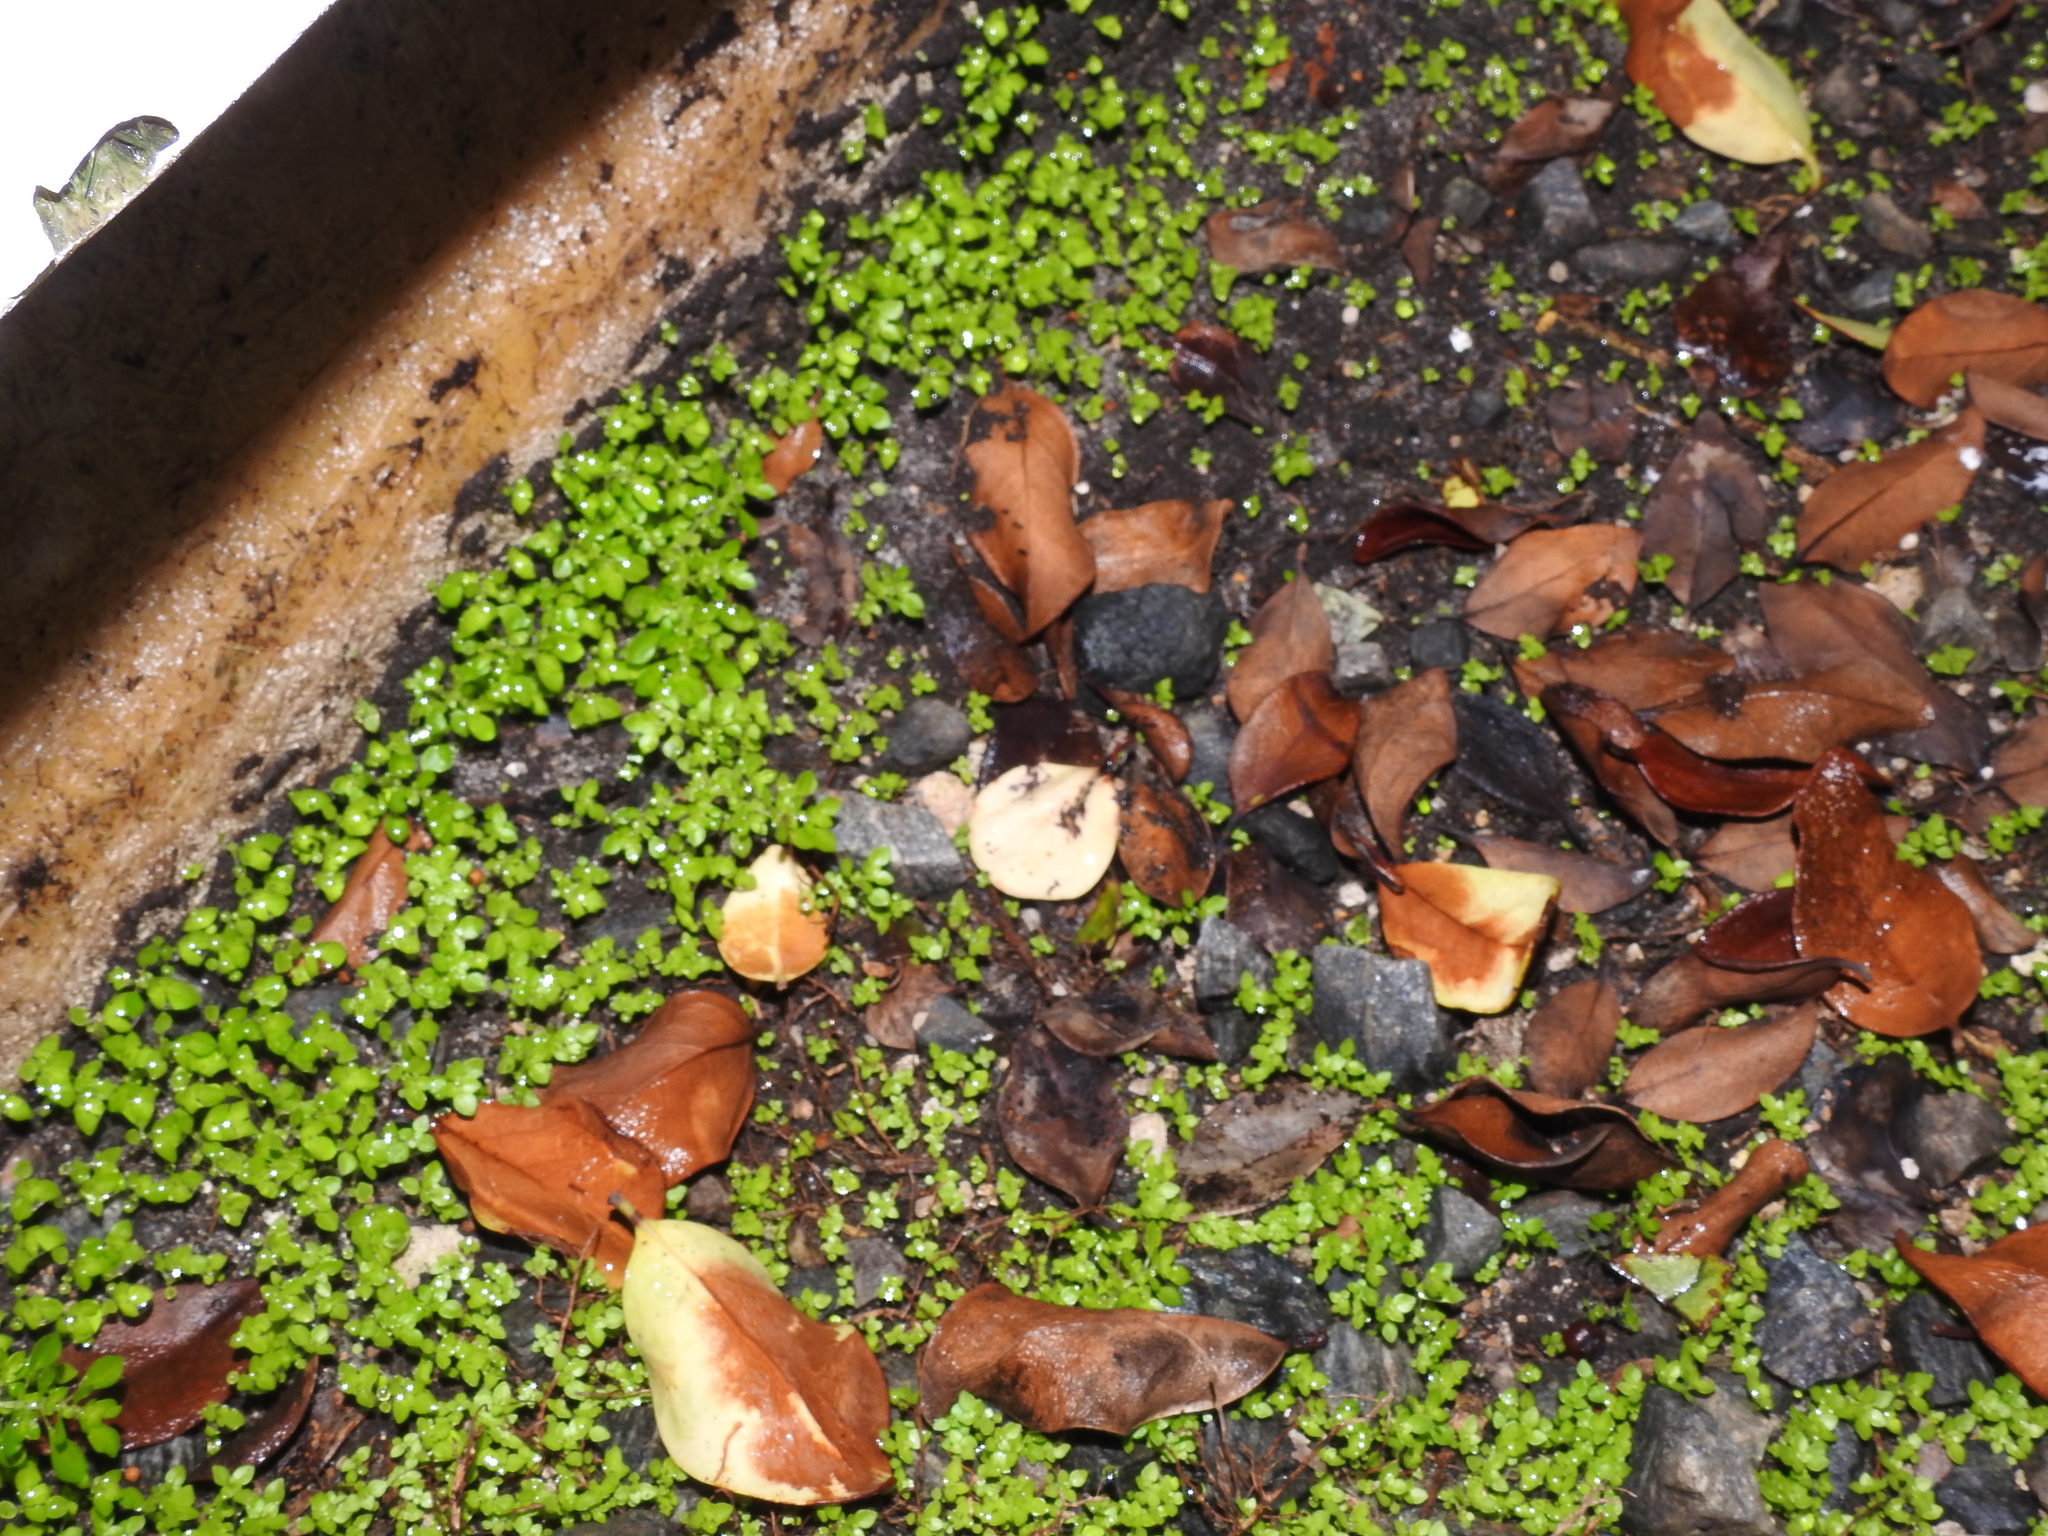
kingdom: Plantae
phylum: Tracheophyta
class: Magnoliopsida
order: Rosales
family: Urticaceae
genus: Pilea
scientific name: Pilea microphylla
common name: Artillery-plant
